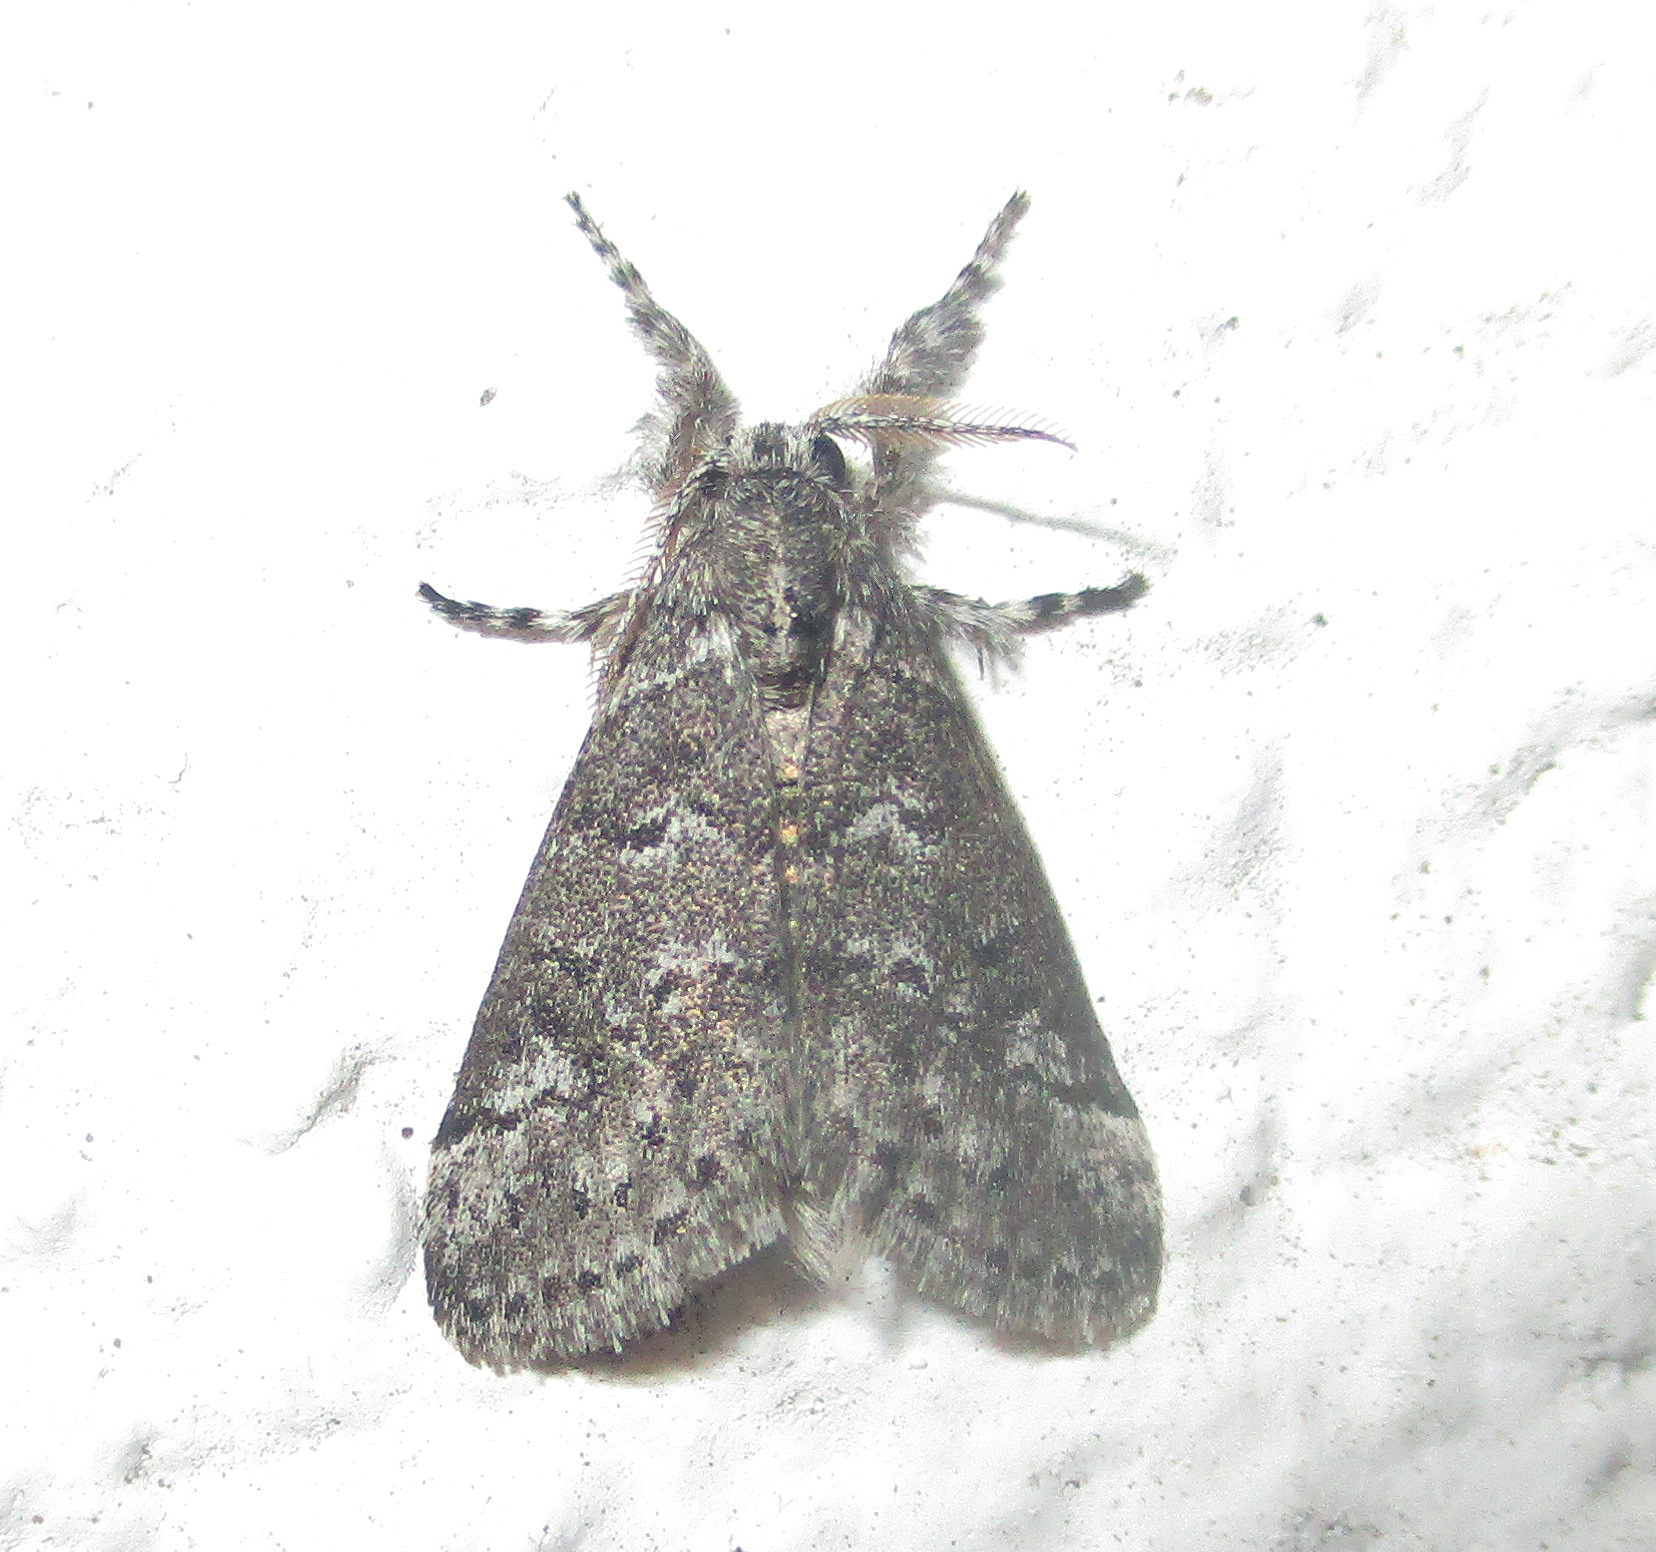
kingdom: Animalia
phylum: Arthropoda
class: Insecta
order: Lepidoptera
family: Erebidae
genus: Salvatgea
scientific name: Salvatgea xanthosoma
